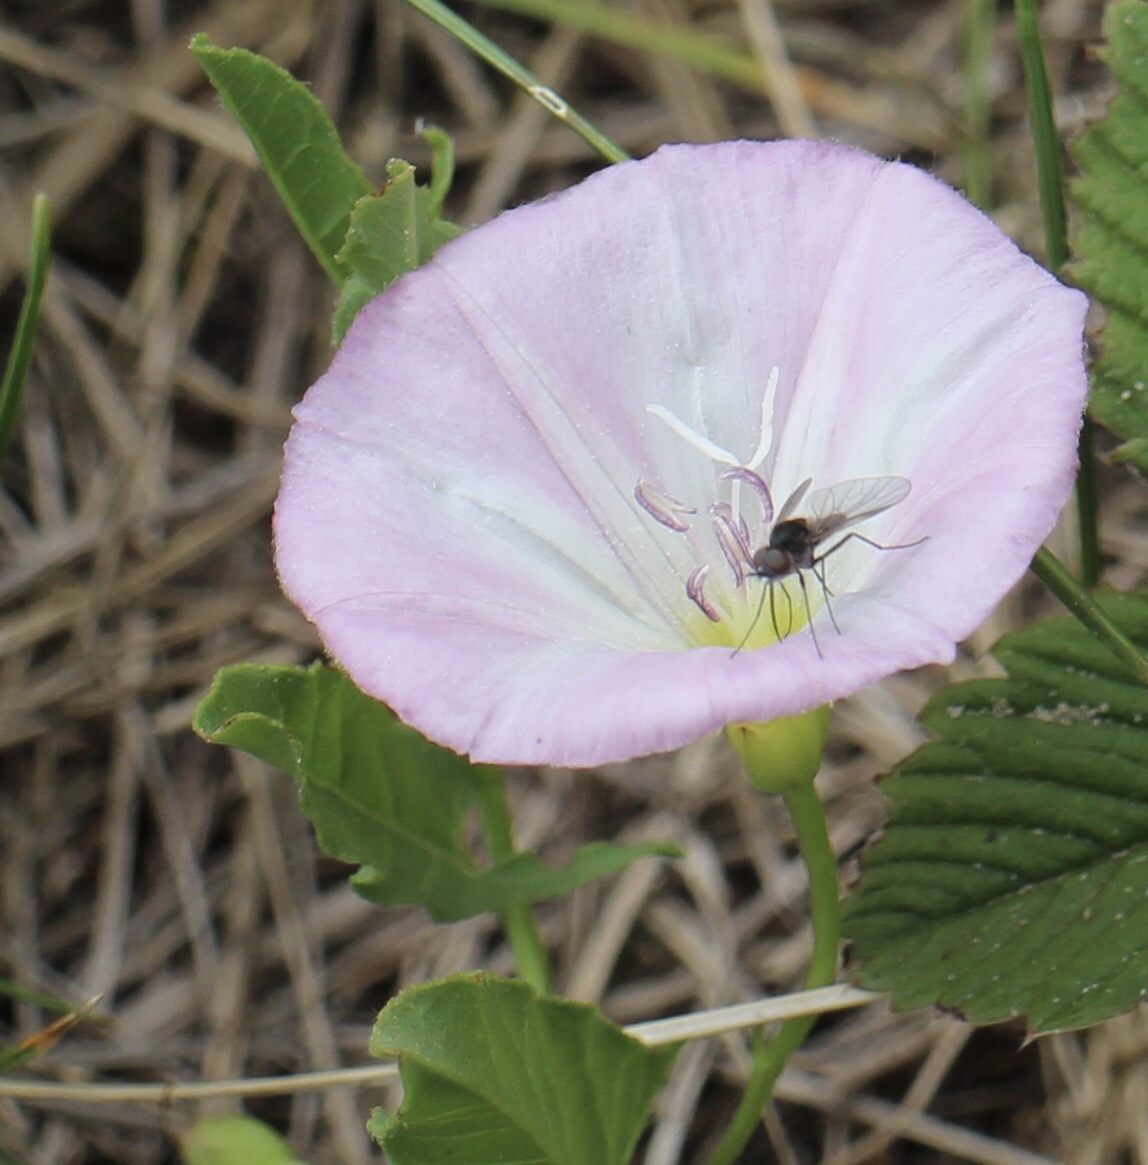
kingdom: Plantae
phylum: Tracheophyta
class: Magnoliopsida
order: Solanales
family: Convolvulaceae
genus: Convolvulus
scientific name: Convolvulus arvensis
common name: Field bindweed
